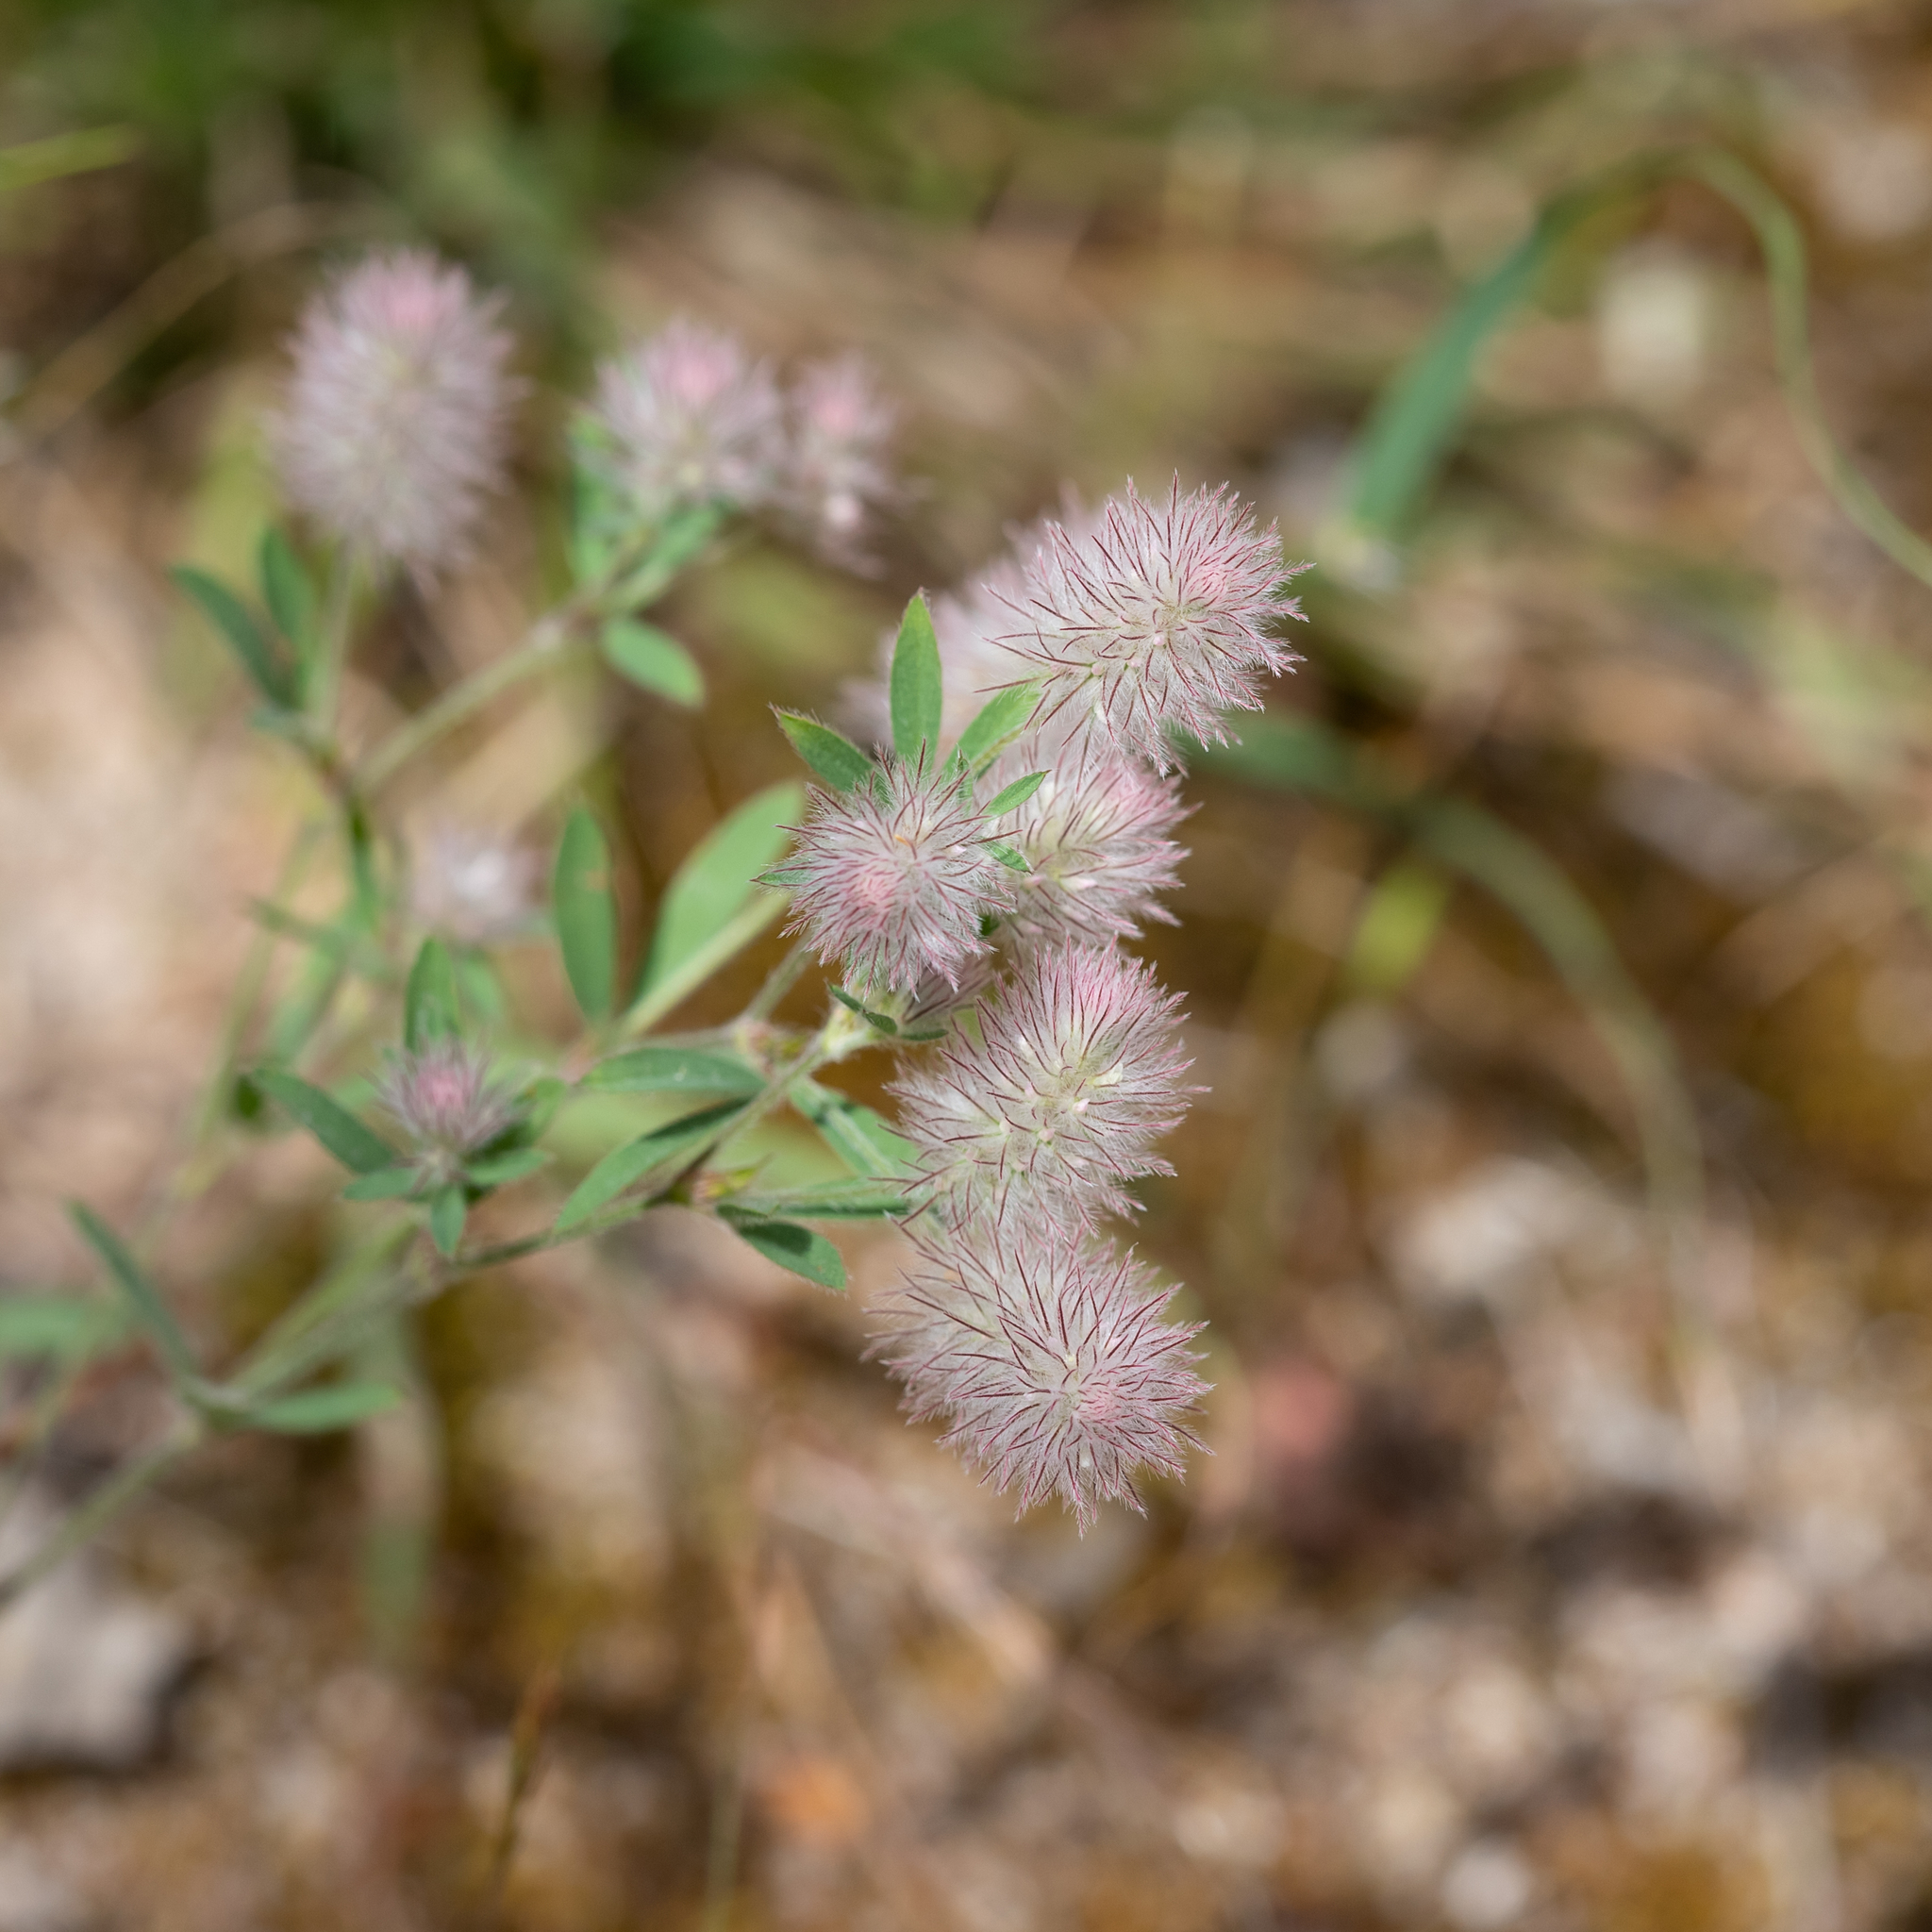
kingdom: Plantae
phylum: Tracheophyta
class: Magnoliopsida
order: Fabales
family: Fabaceae
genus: Trifolium
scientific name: Trifolium arvense
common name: Hare's-foot clover
